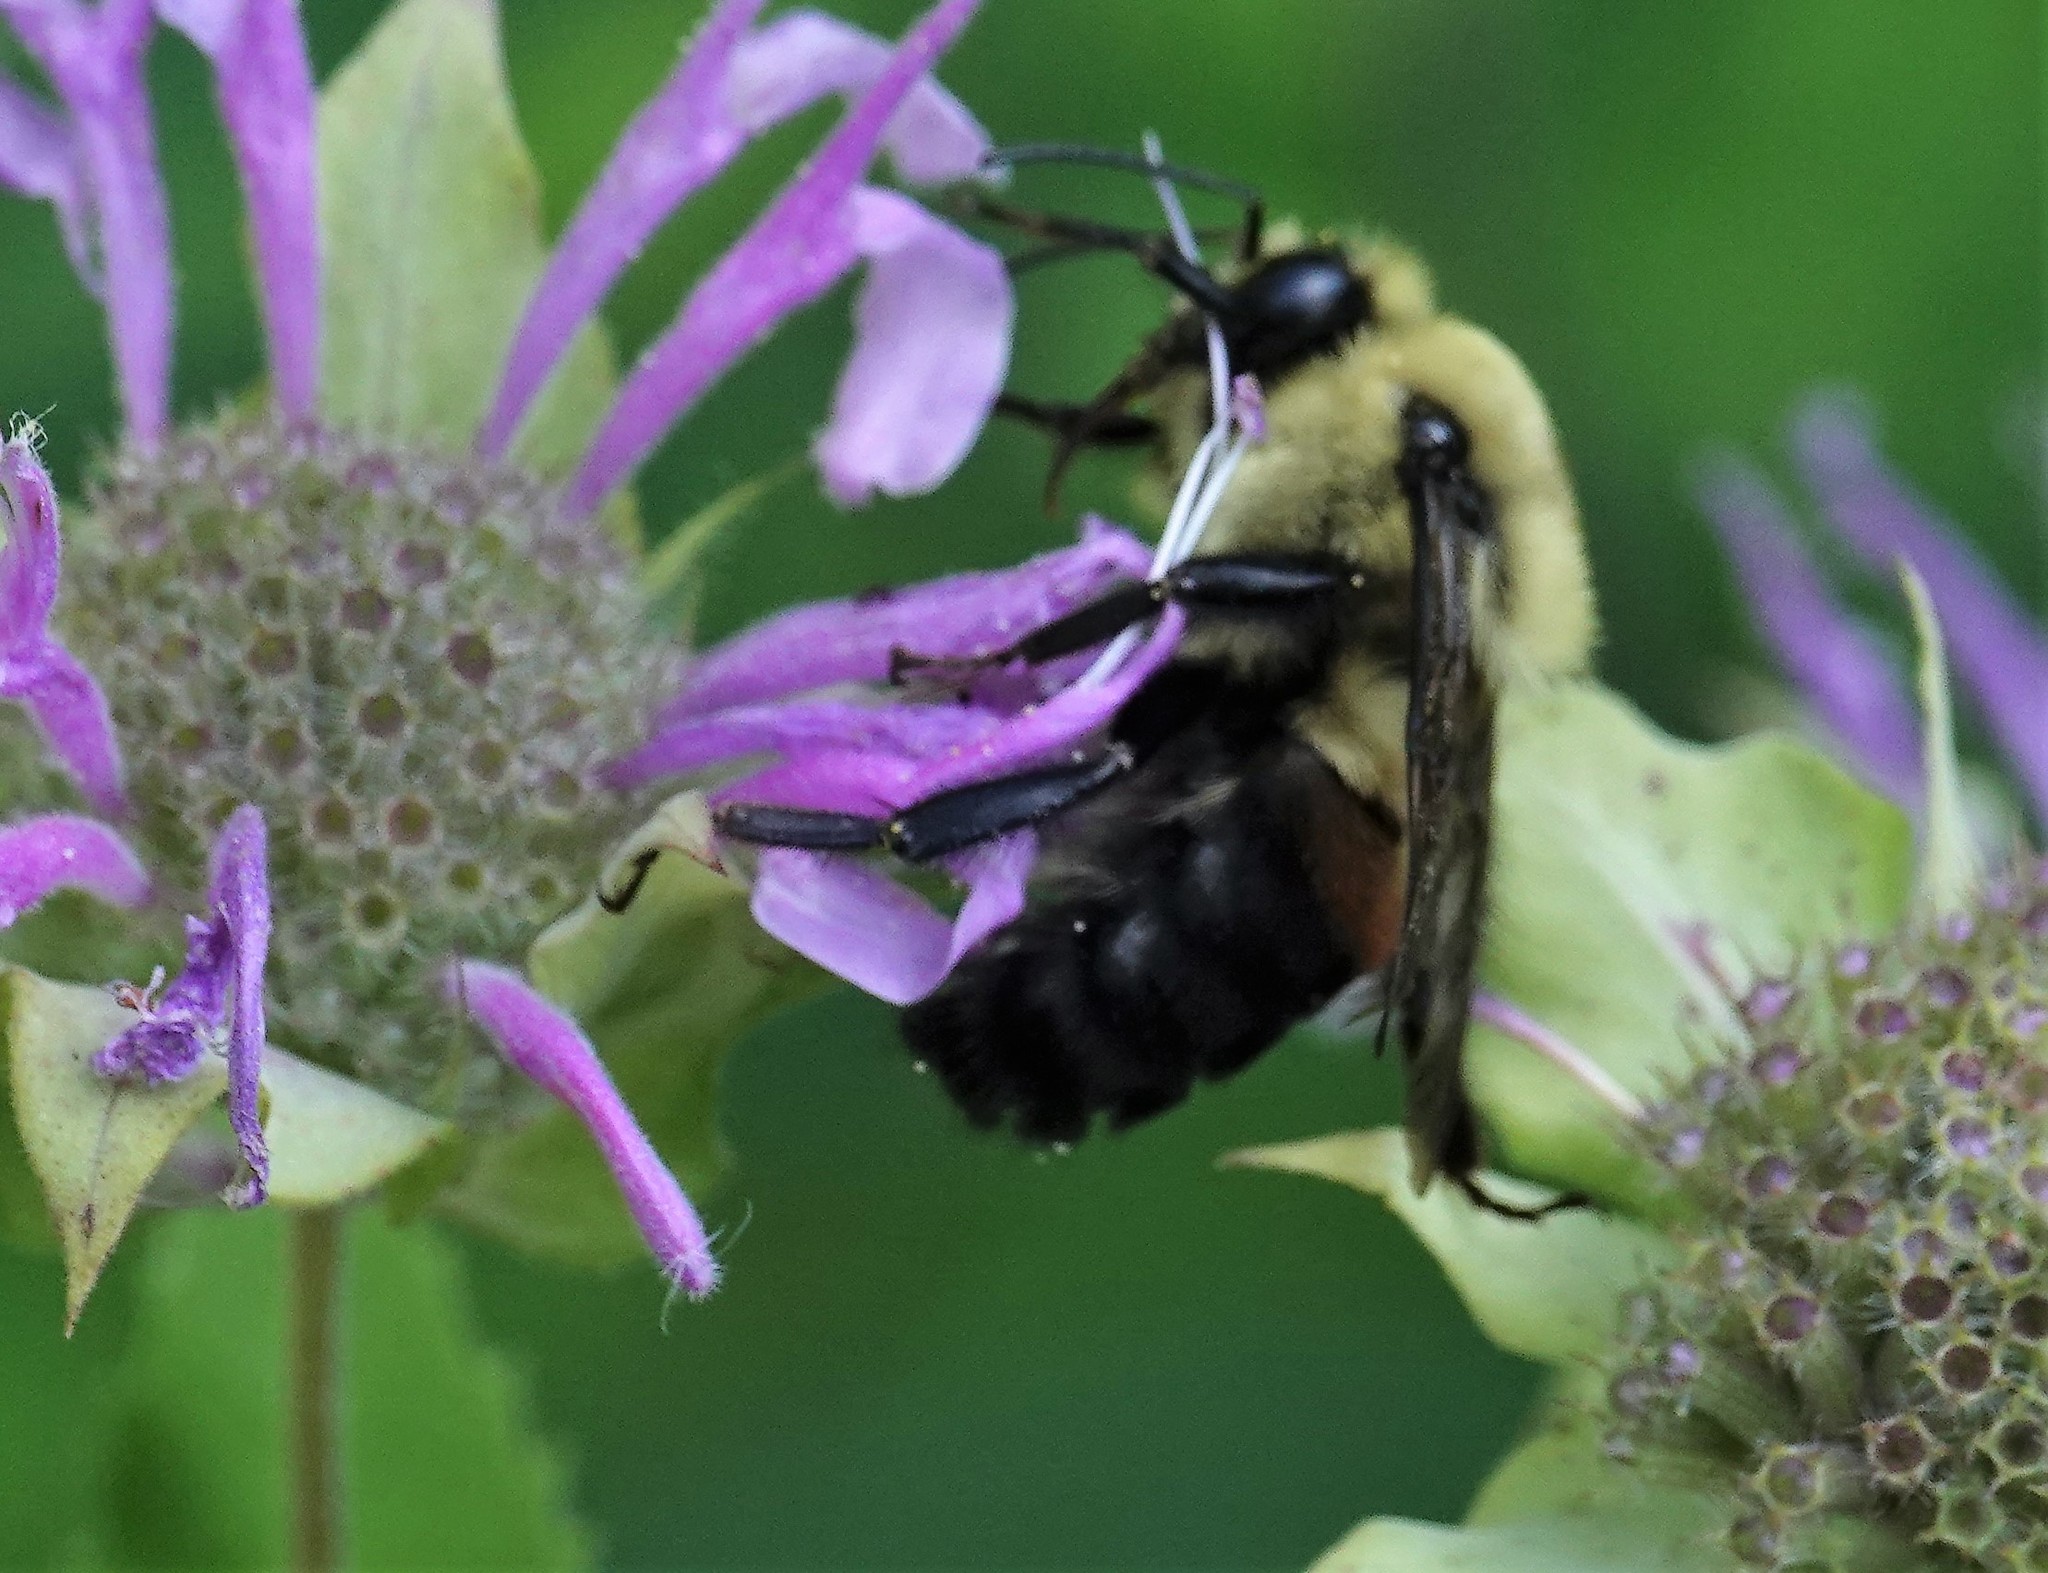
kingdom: Animalia
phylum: Arthropoda
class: Insecta
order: Hymenoptera
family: Apidae
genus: Bombus
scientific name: Bombus griseocollis
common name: Brown-belted bumble bee
